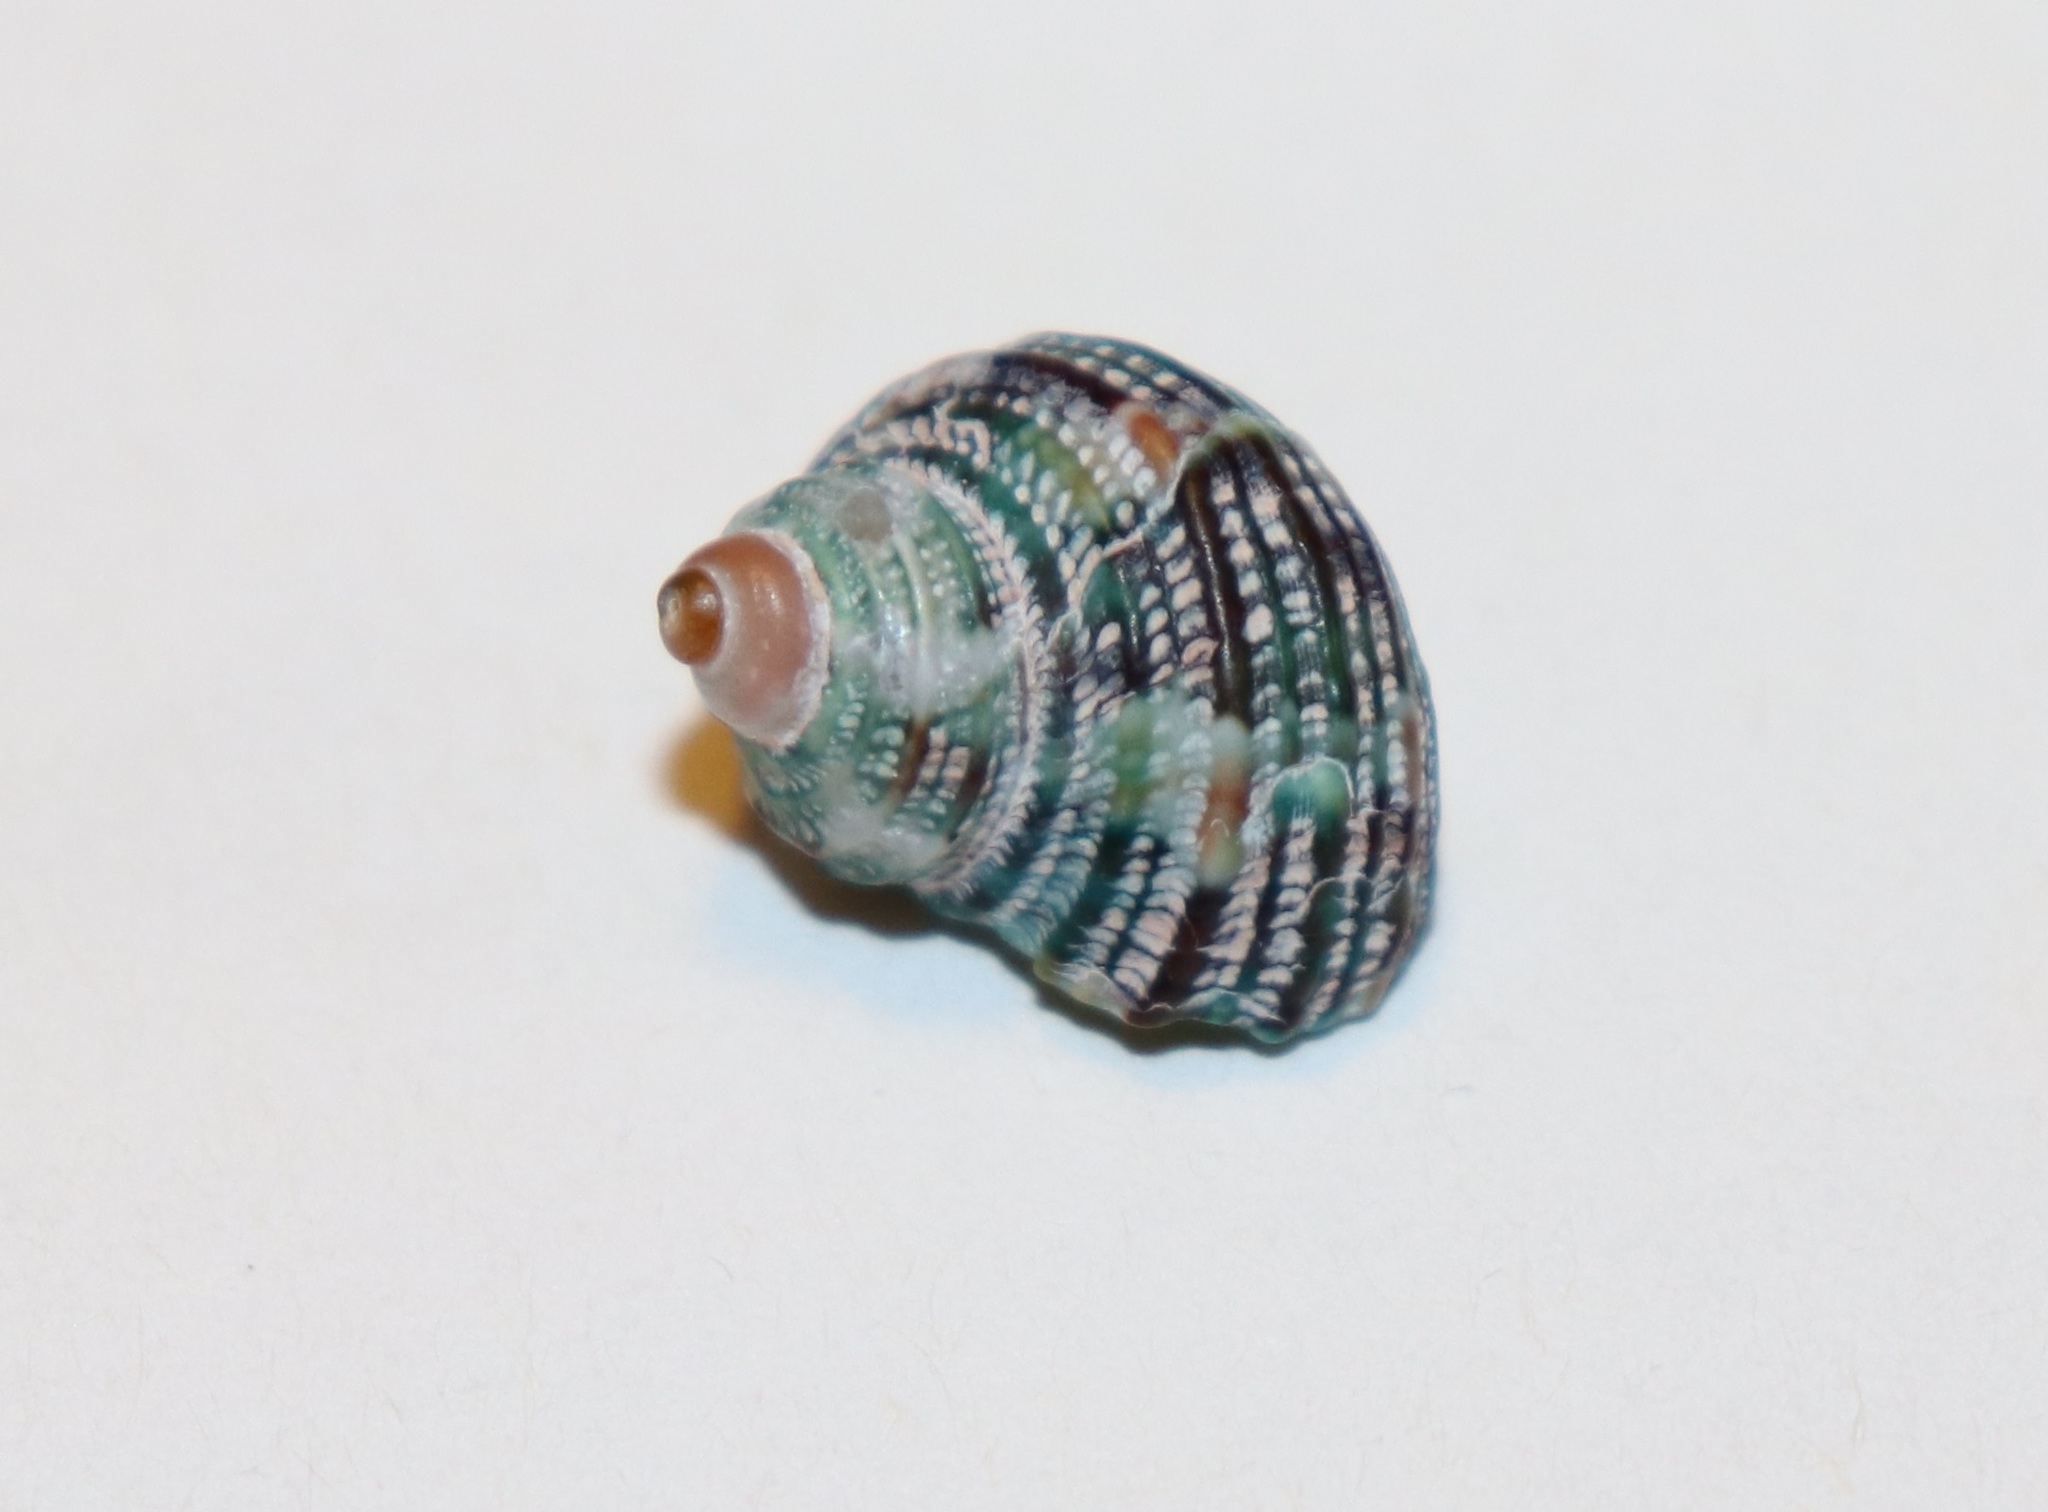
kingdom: Animalia
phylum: Mollusca
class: Gastropoda
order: Trochida
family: Turbinidae
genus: Turbo
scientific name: Turbo stenogyrus
